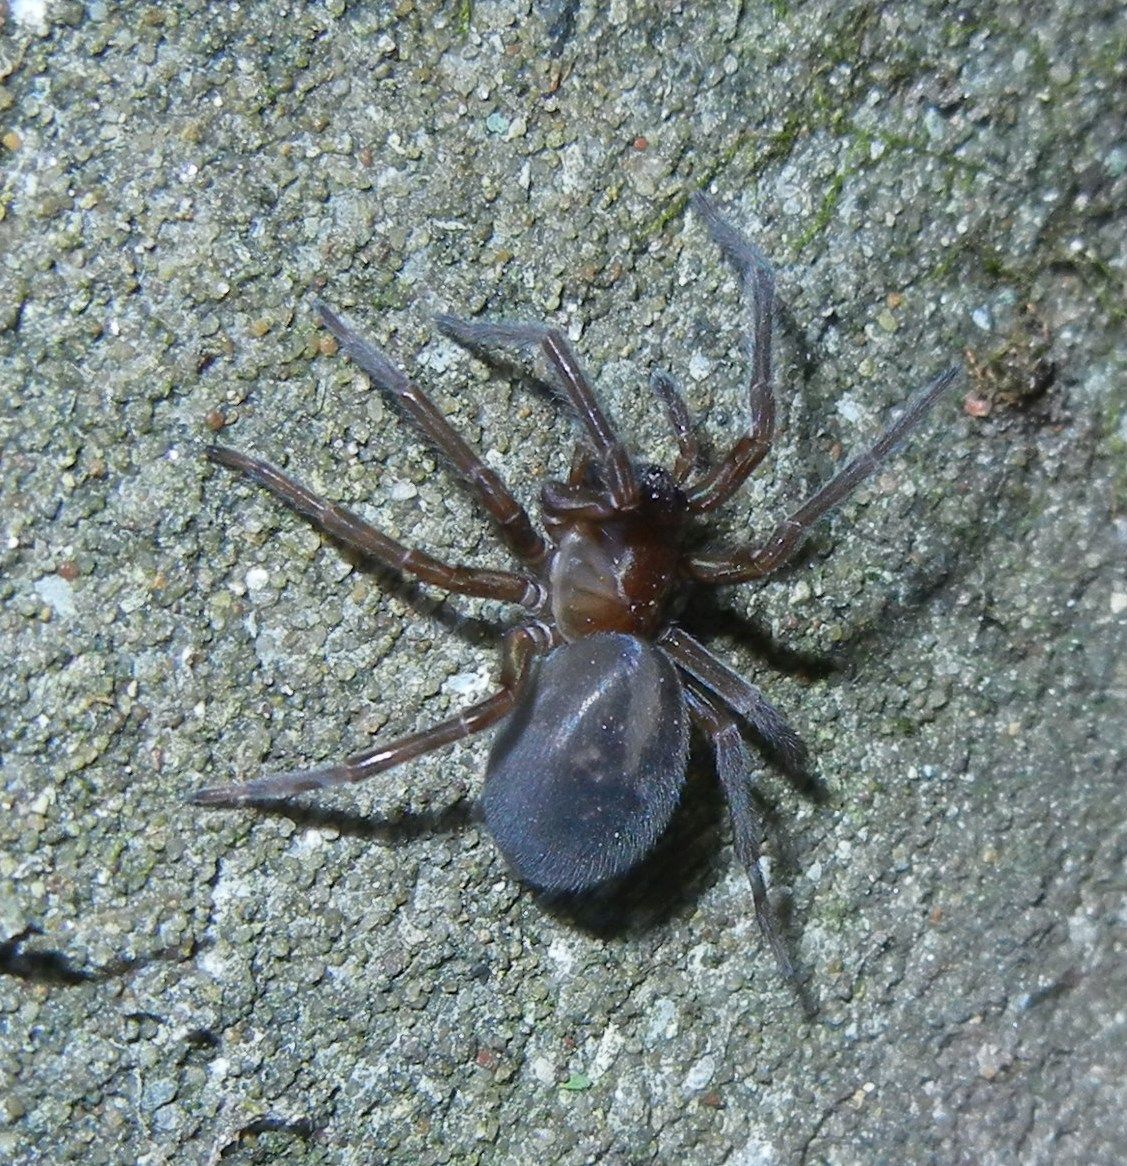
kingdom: Animalia
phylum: Arthropoda
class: Arachnida
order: Araneae
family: Amaurobiidae
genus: Amaurobius
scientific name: Amaurobius ferox
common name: Black laceweaver
